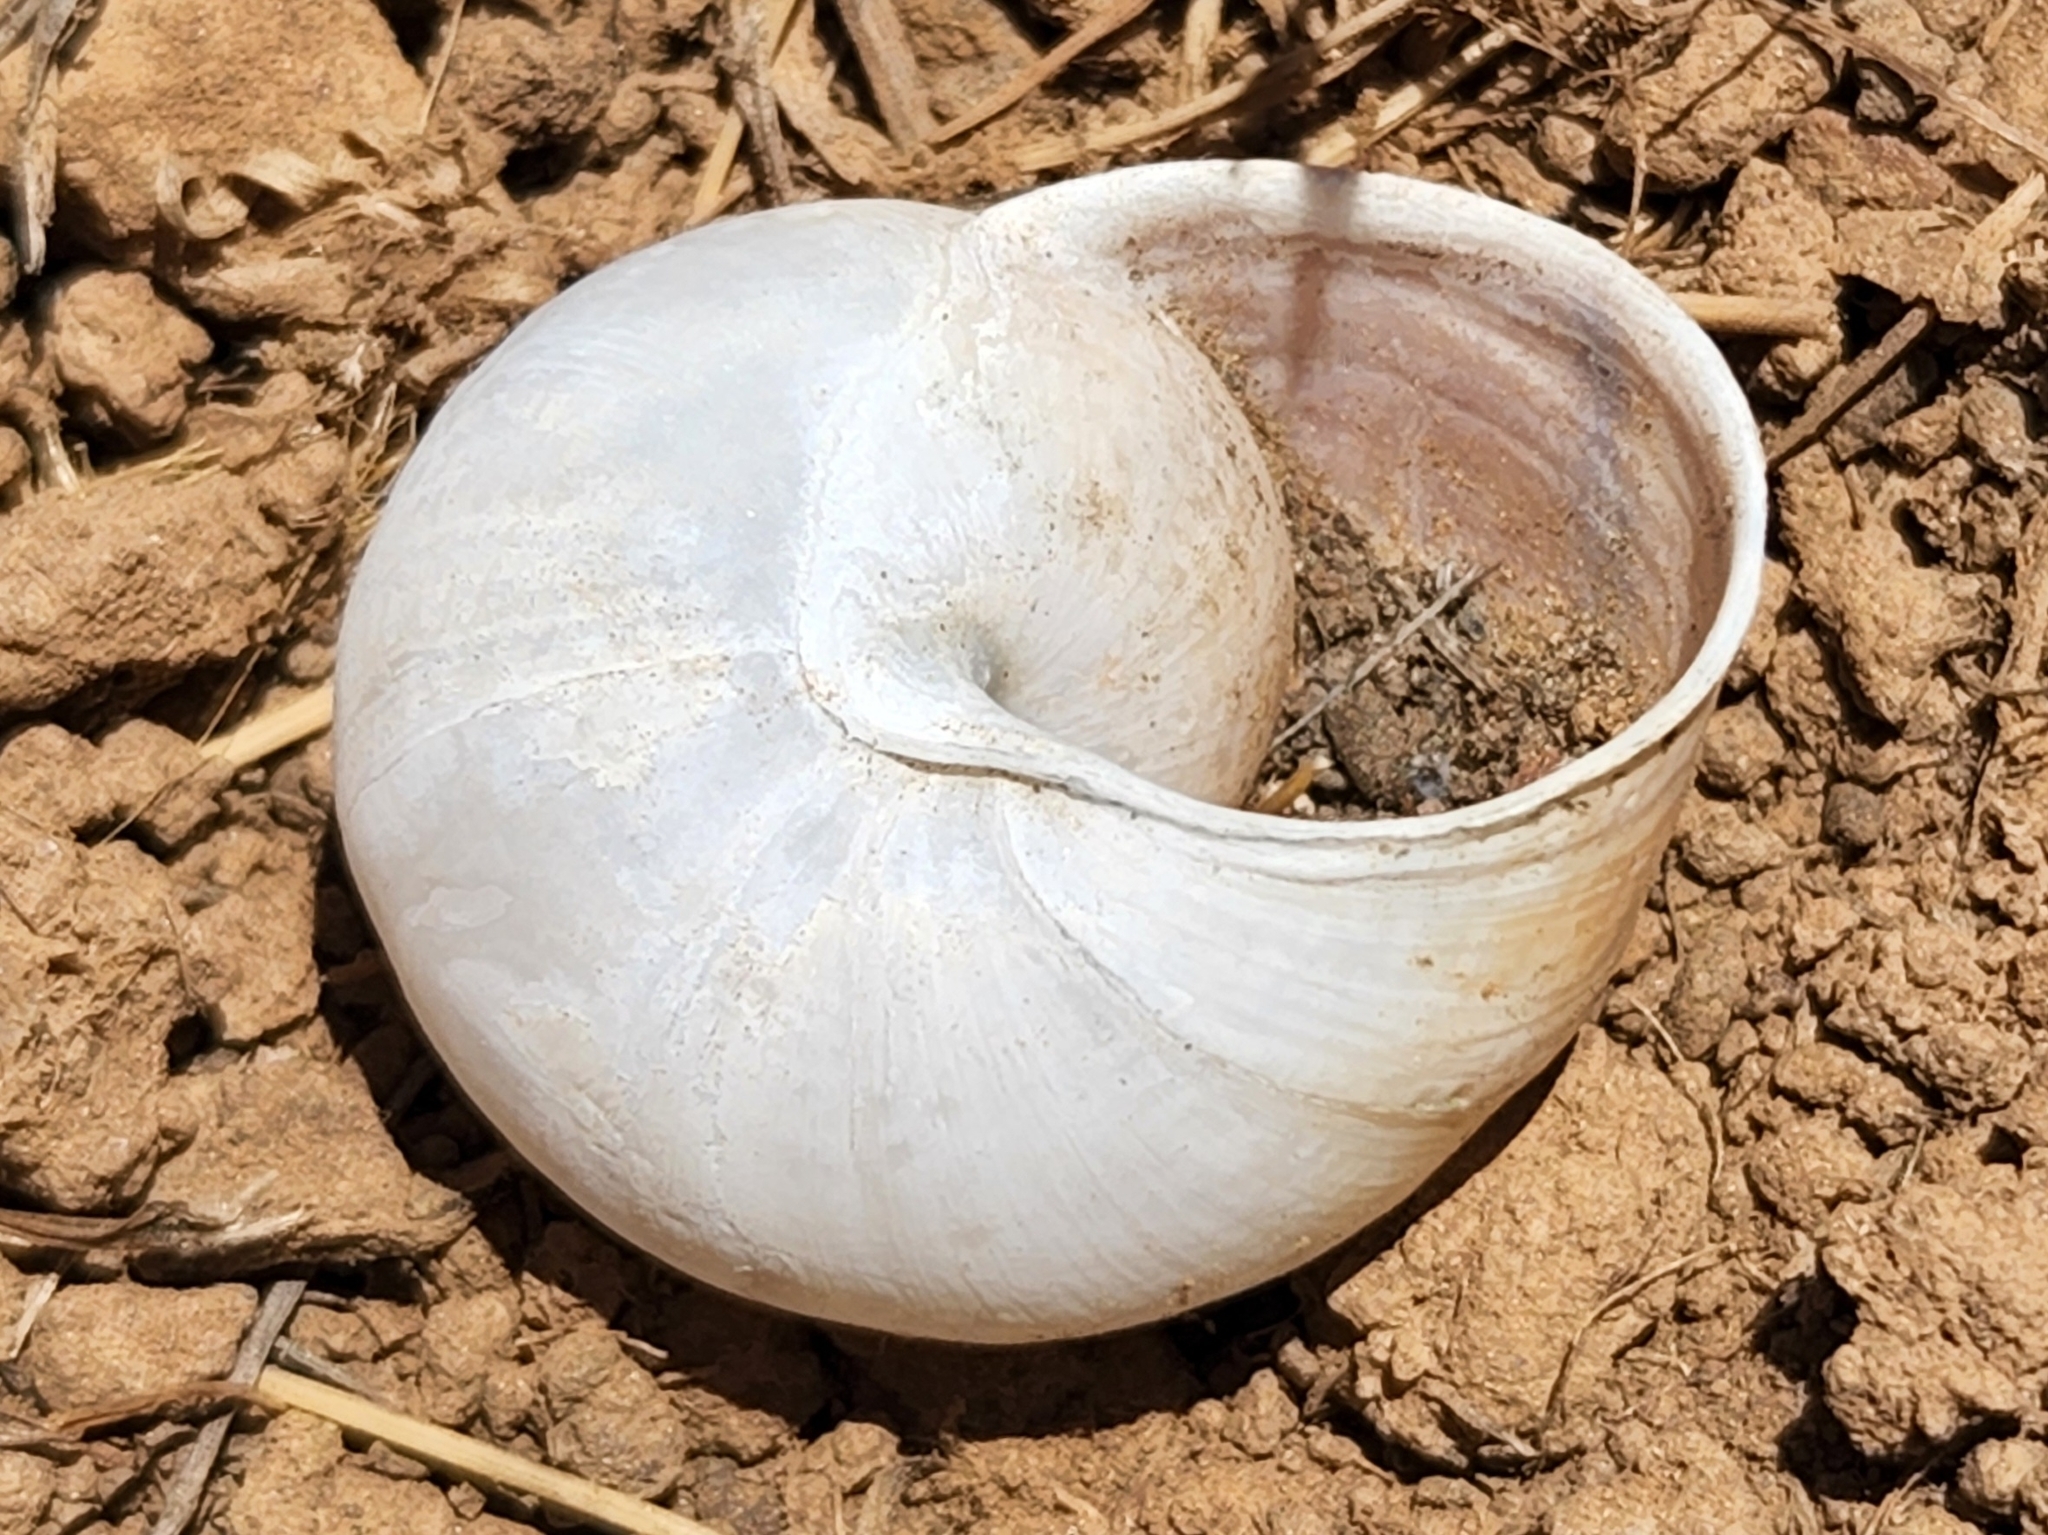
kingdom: Animalia
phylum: Mollusca
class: Gastropoda
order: Stylommatophora
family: Xanthonychidae
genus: Xerarionta
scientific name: Xerarionta kellettii
